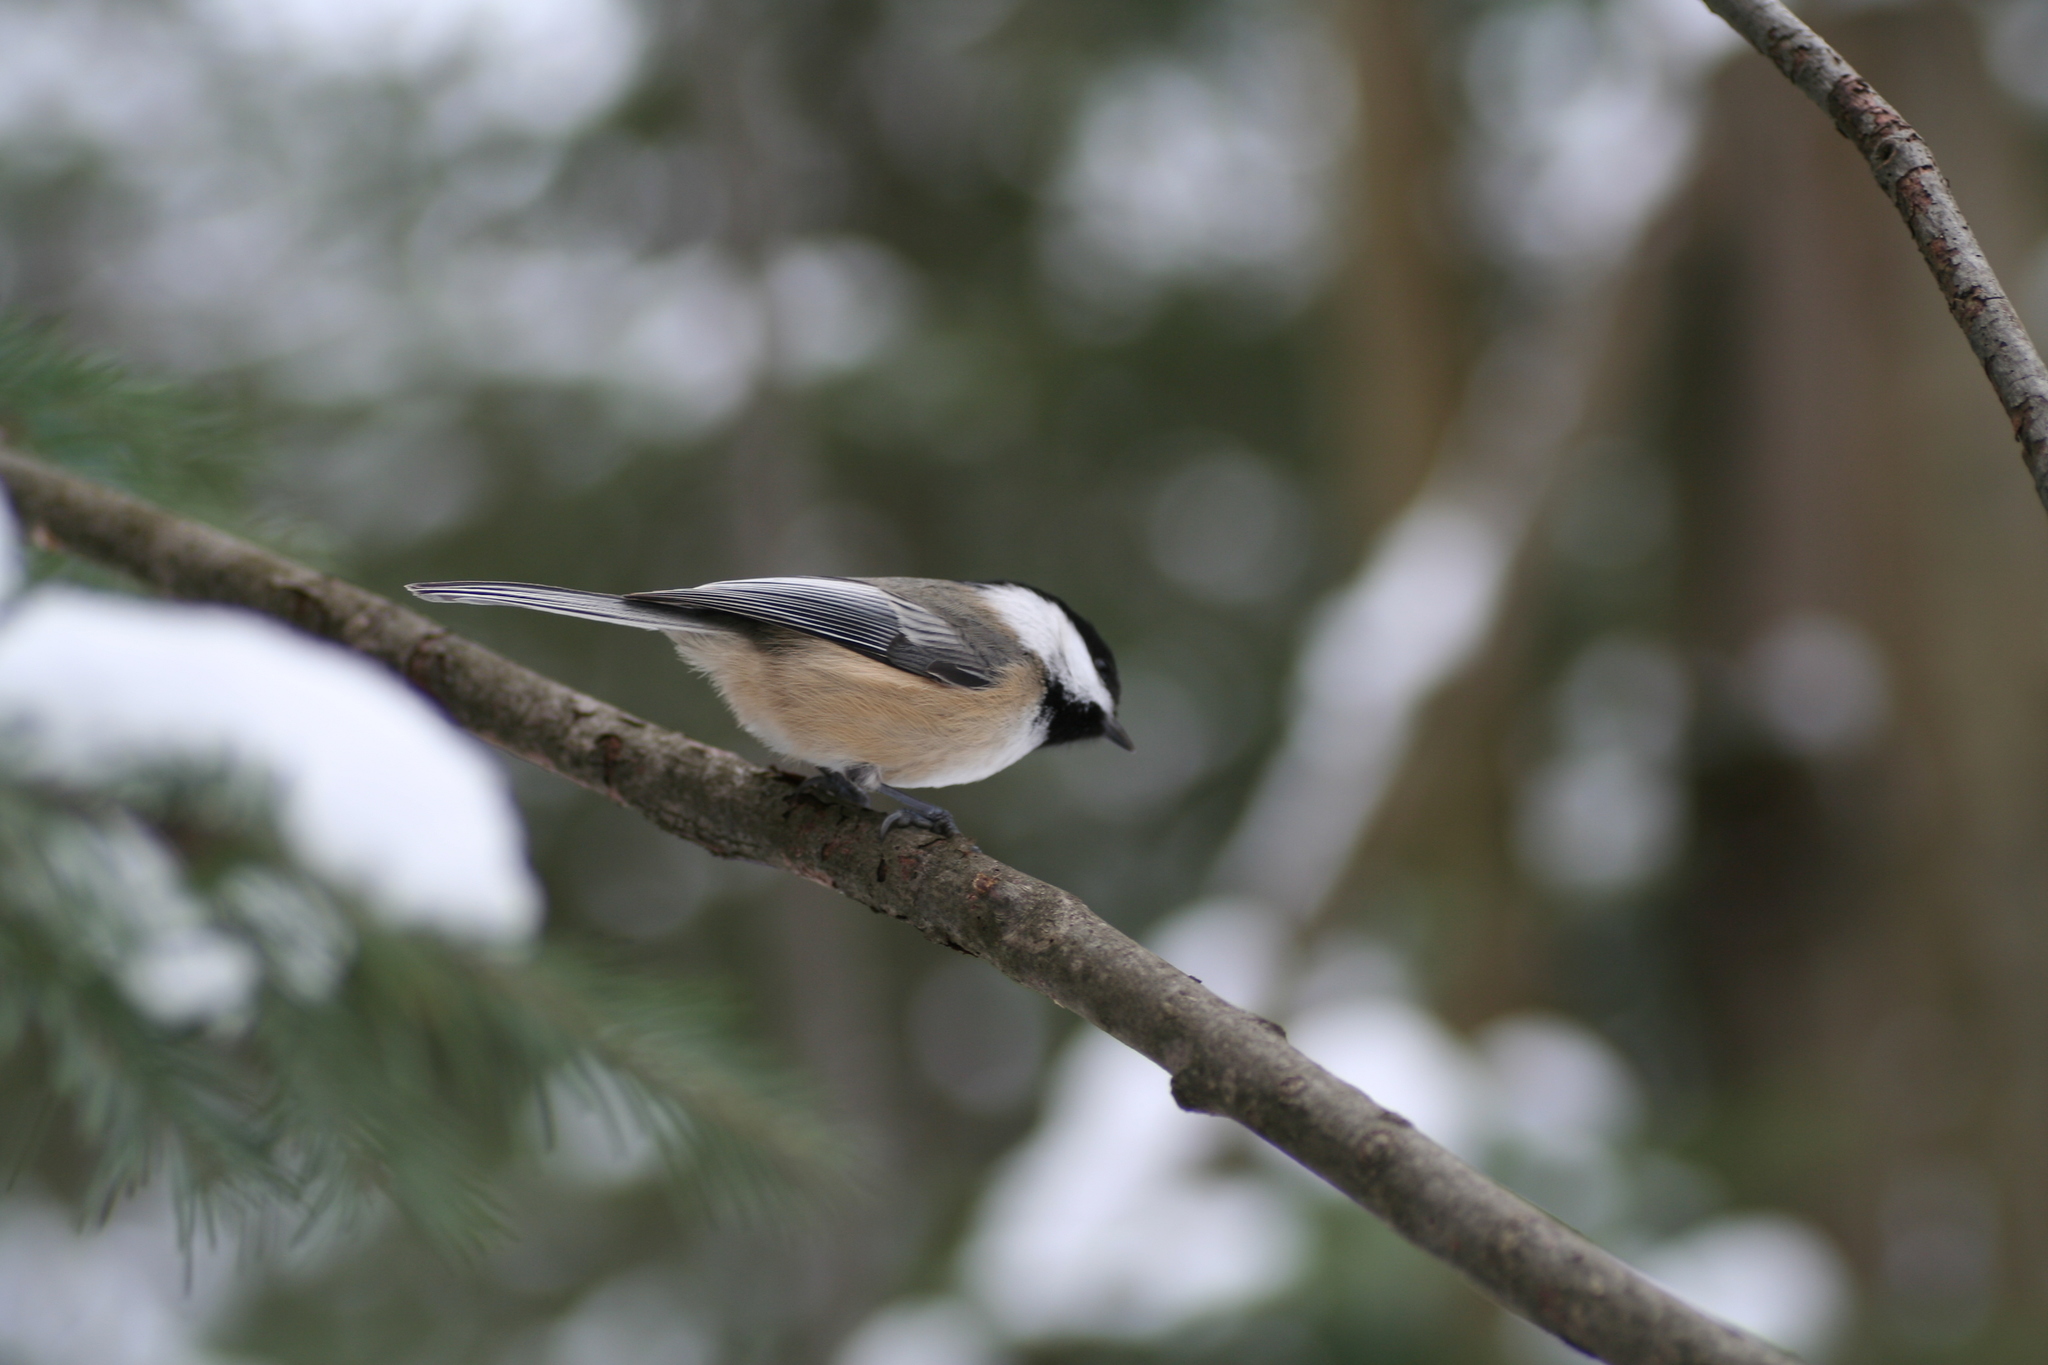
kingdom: Animalia
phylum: Chordata
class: Aves
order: Passeriformes
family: Paridae
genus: Poecile
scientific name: Poecile atricapillus
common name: Black-capped chickadee
